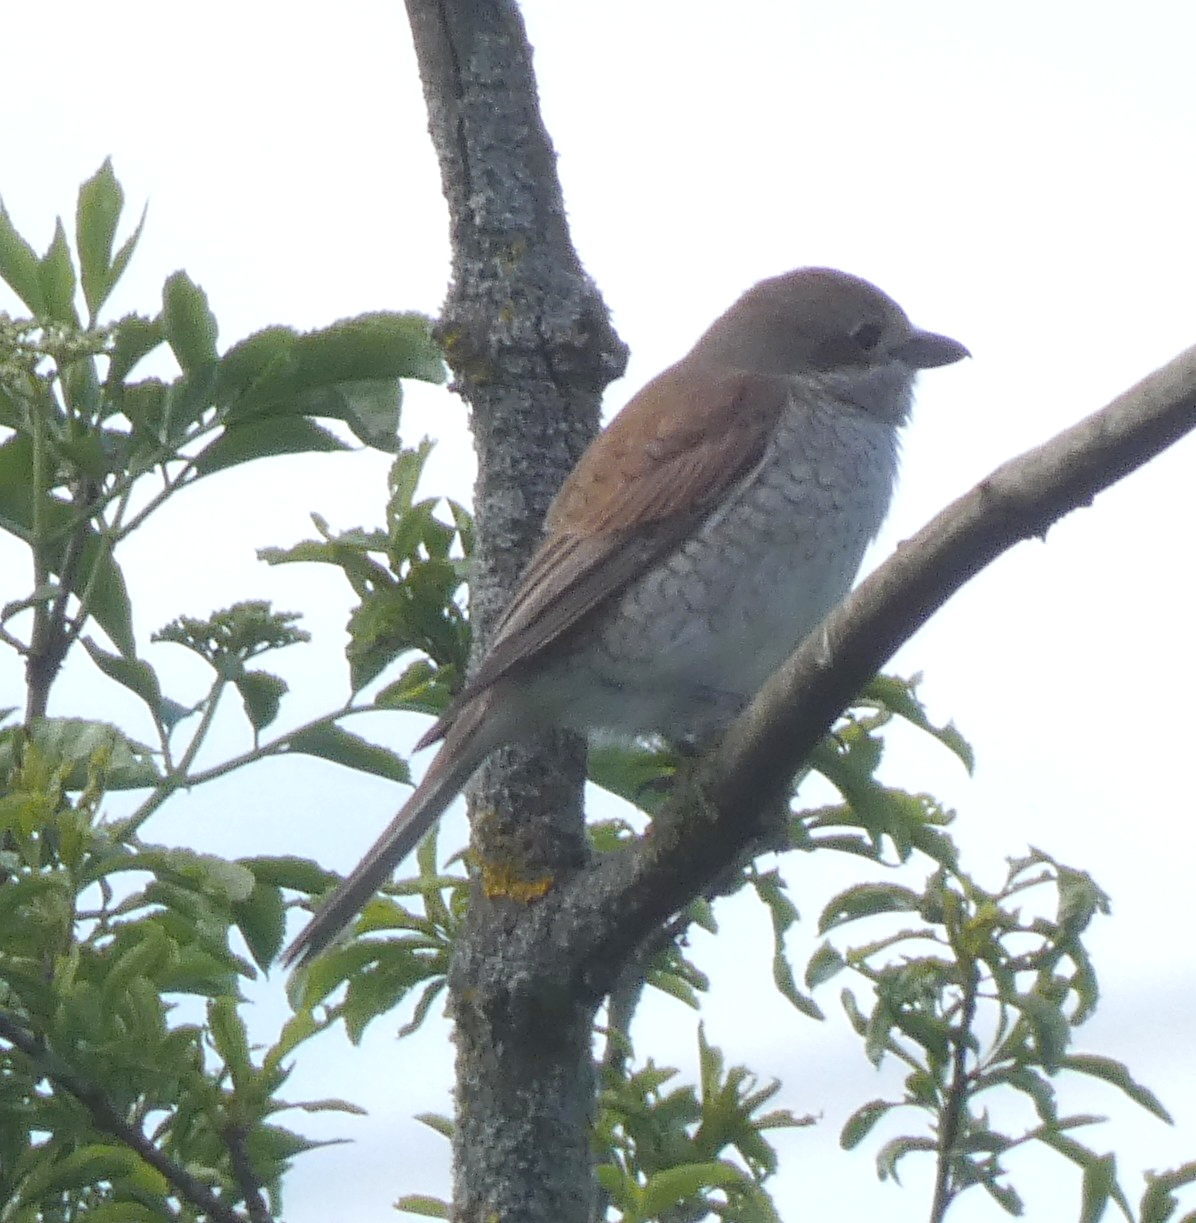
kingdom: Animalia
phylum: Chordata
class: Aves
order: Passeriformes
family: Laniidae
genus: Lanius
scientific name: Lanius collurio
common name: Red-backed shrike
